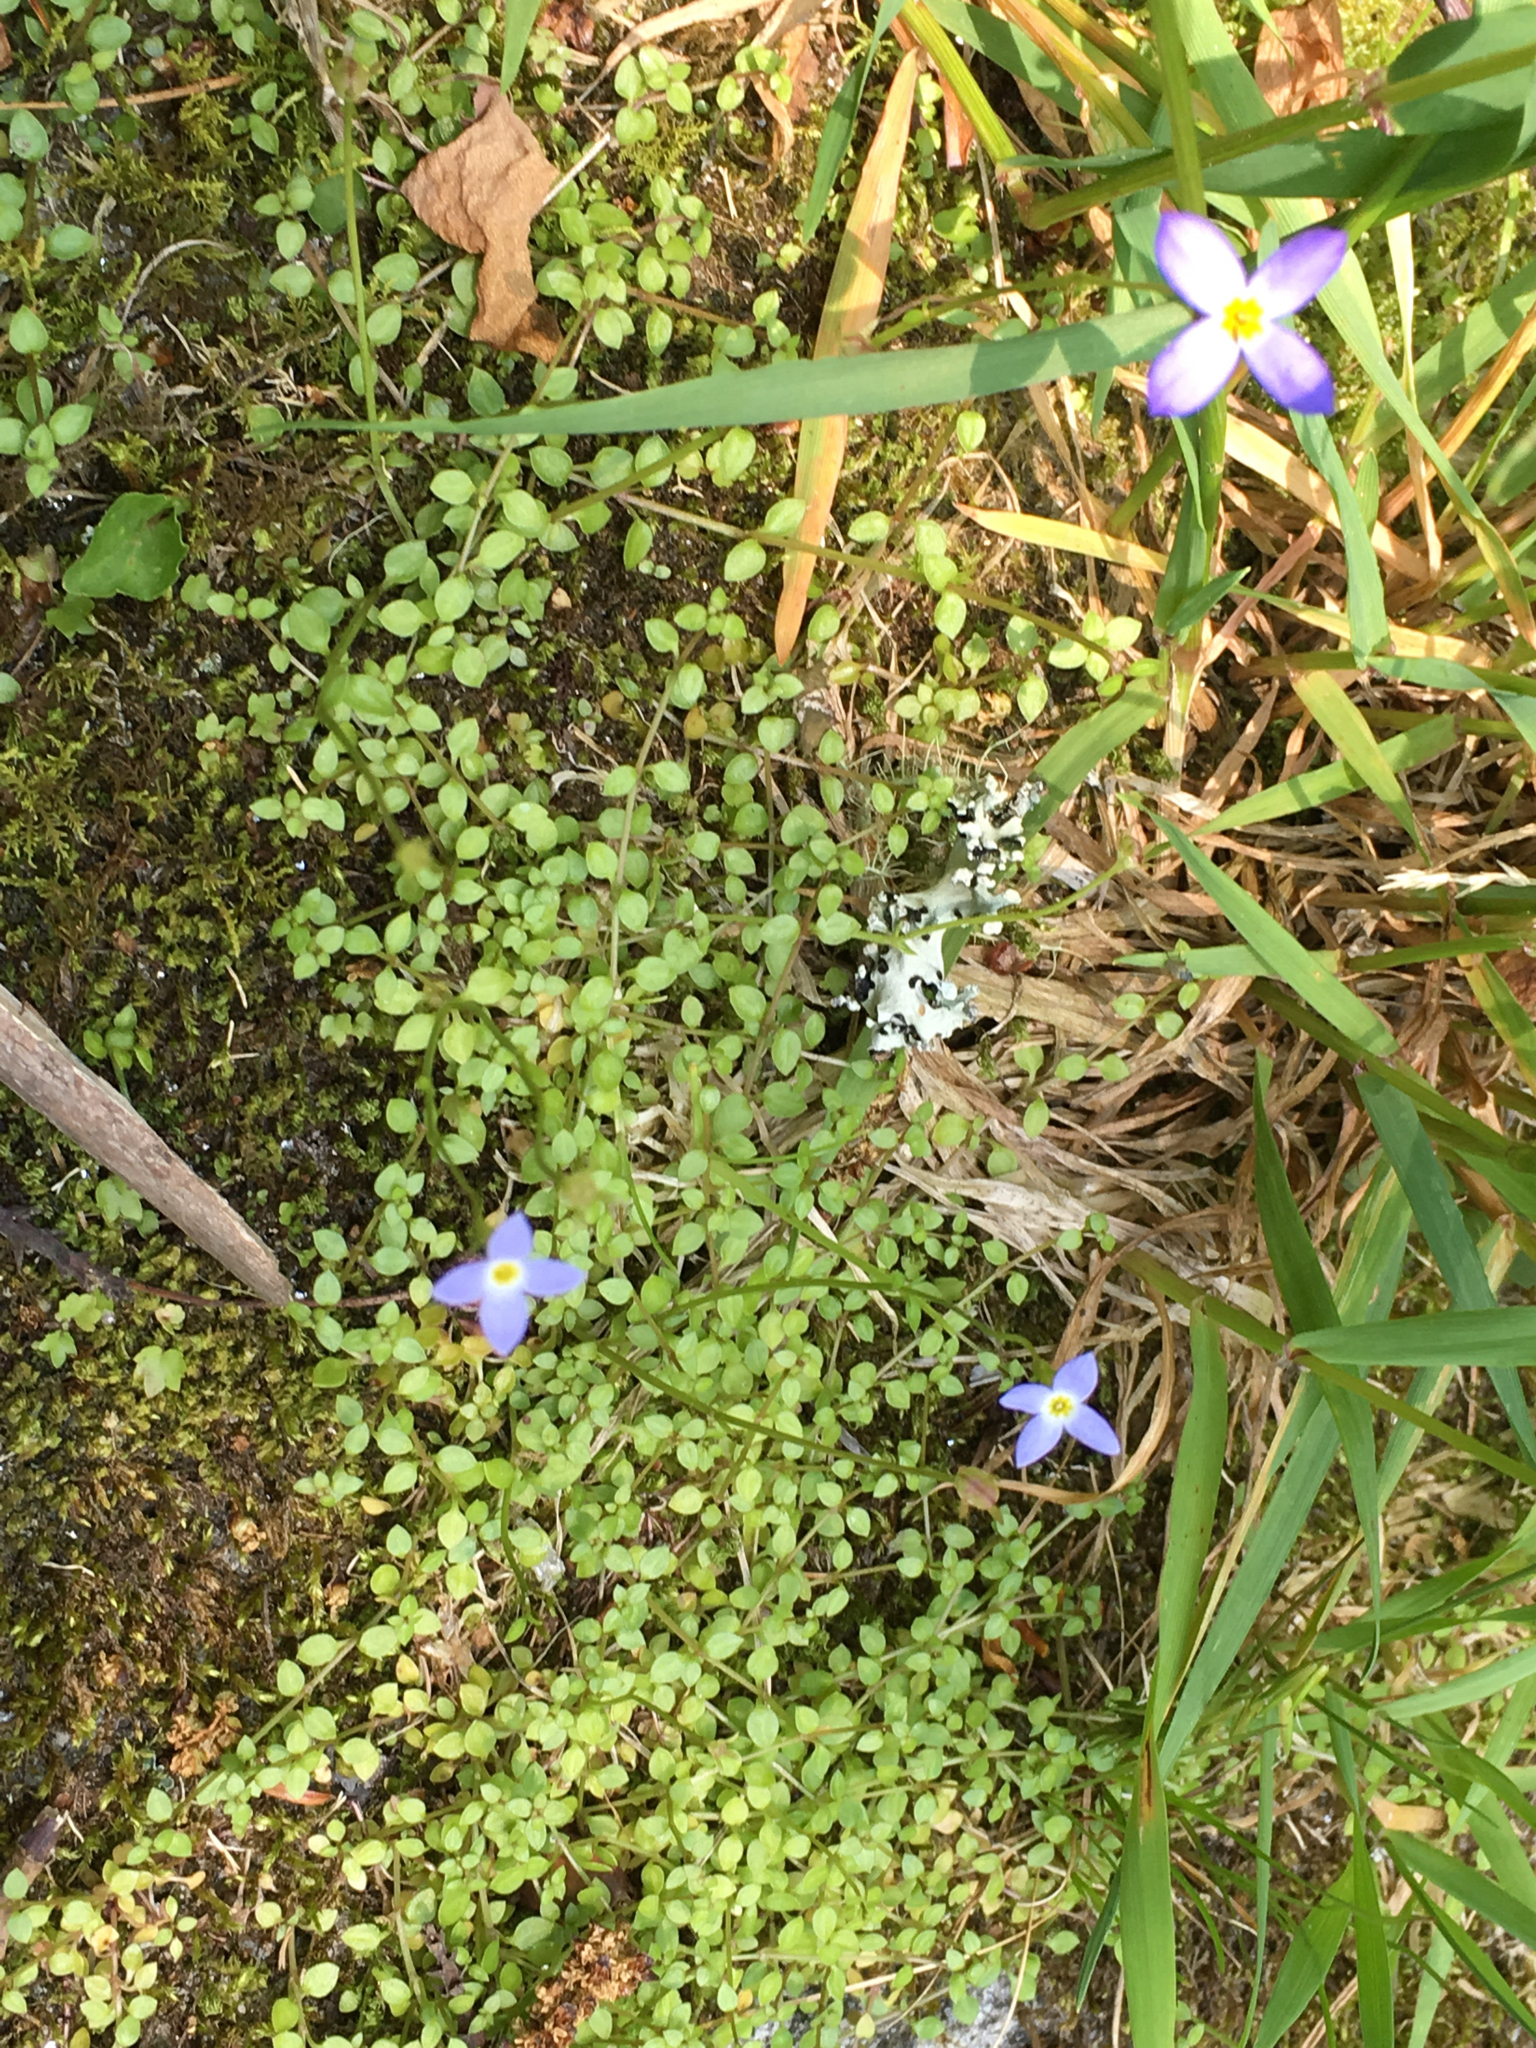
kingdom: Plantae
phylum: Tracheophyta
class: Magnoliopsida
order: Gentianales
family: Rubiaceae
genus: Houstonia
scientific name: Houstonia serpyllifolia
